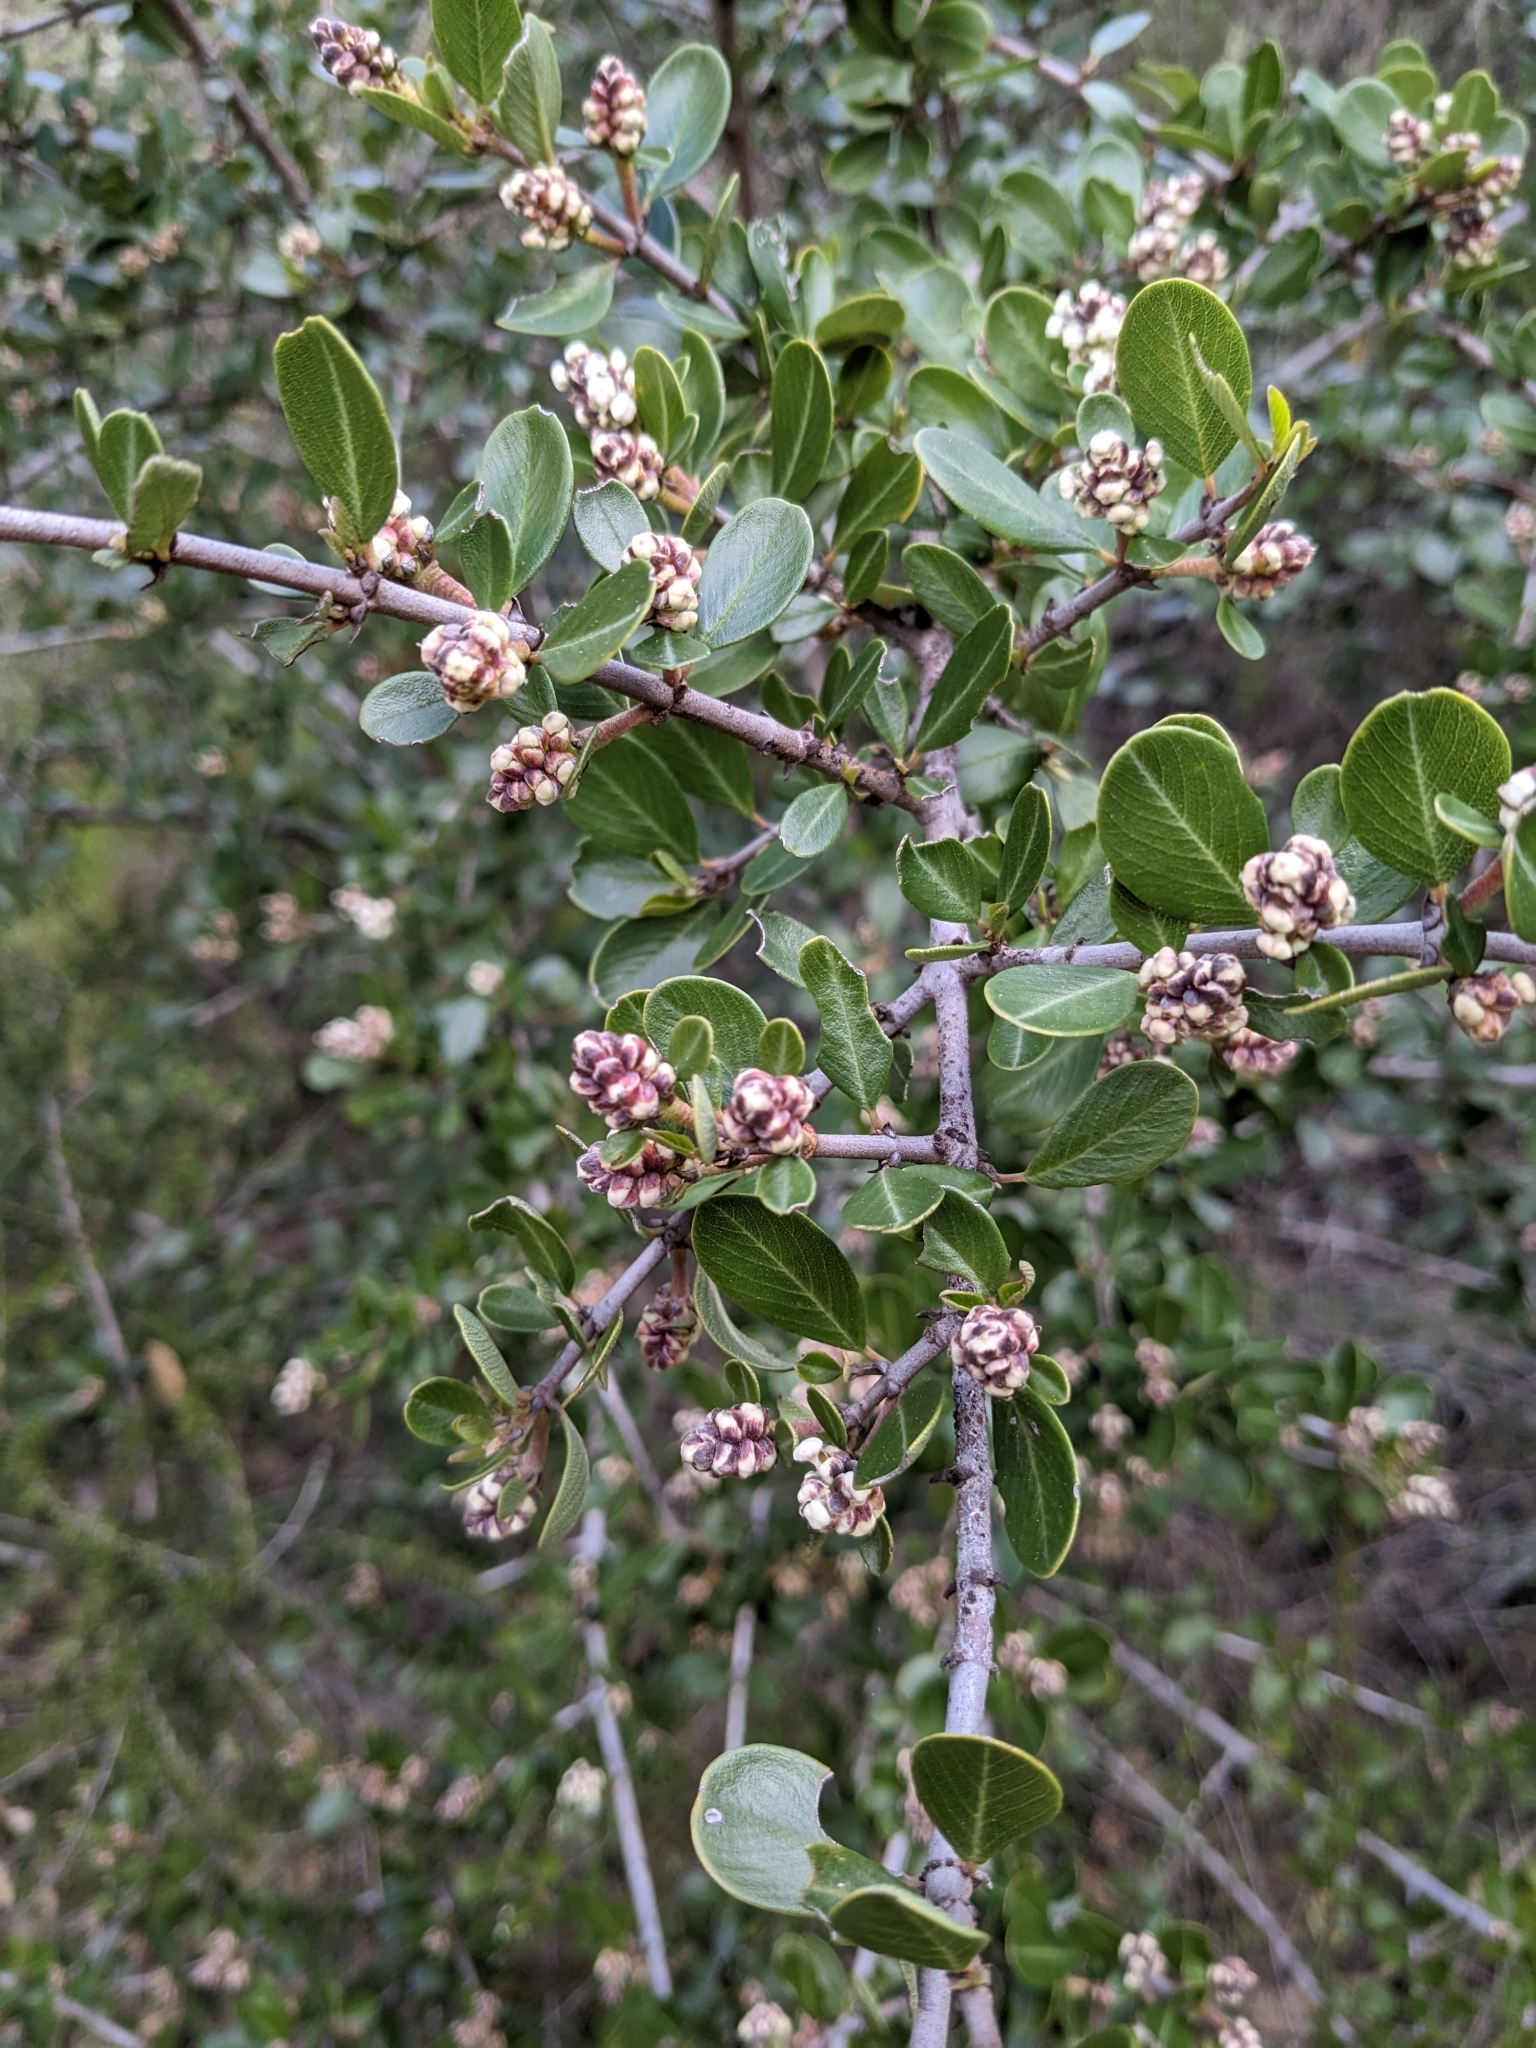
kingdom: Plantae
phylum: Tracheophyta
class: Magnoliopsida
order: Rosales
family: Rhamnaceae
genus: Ceanothus
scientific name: Ceanothus cuneatus
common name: Cuneate ceanothus
